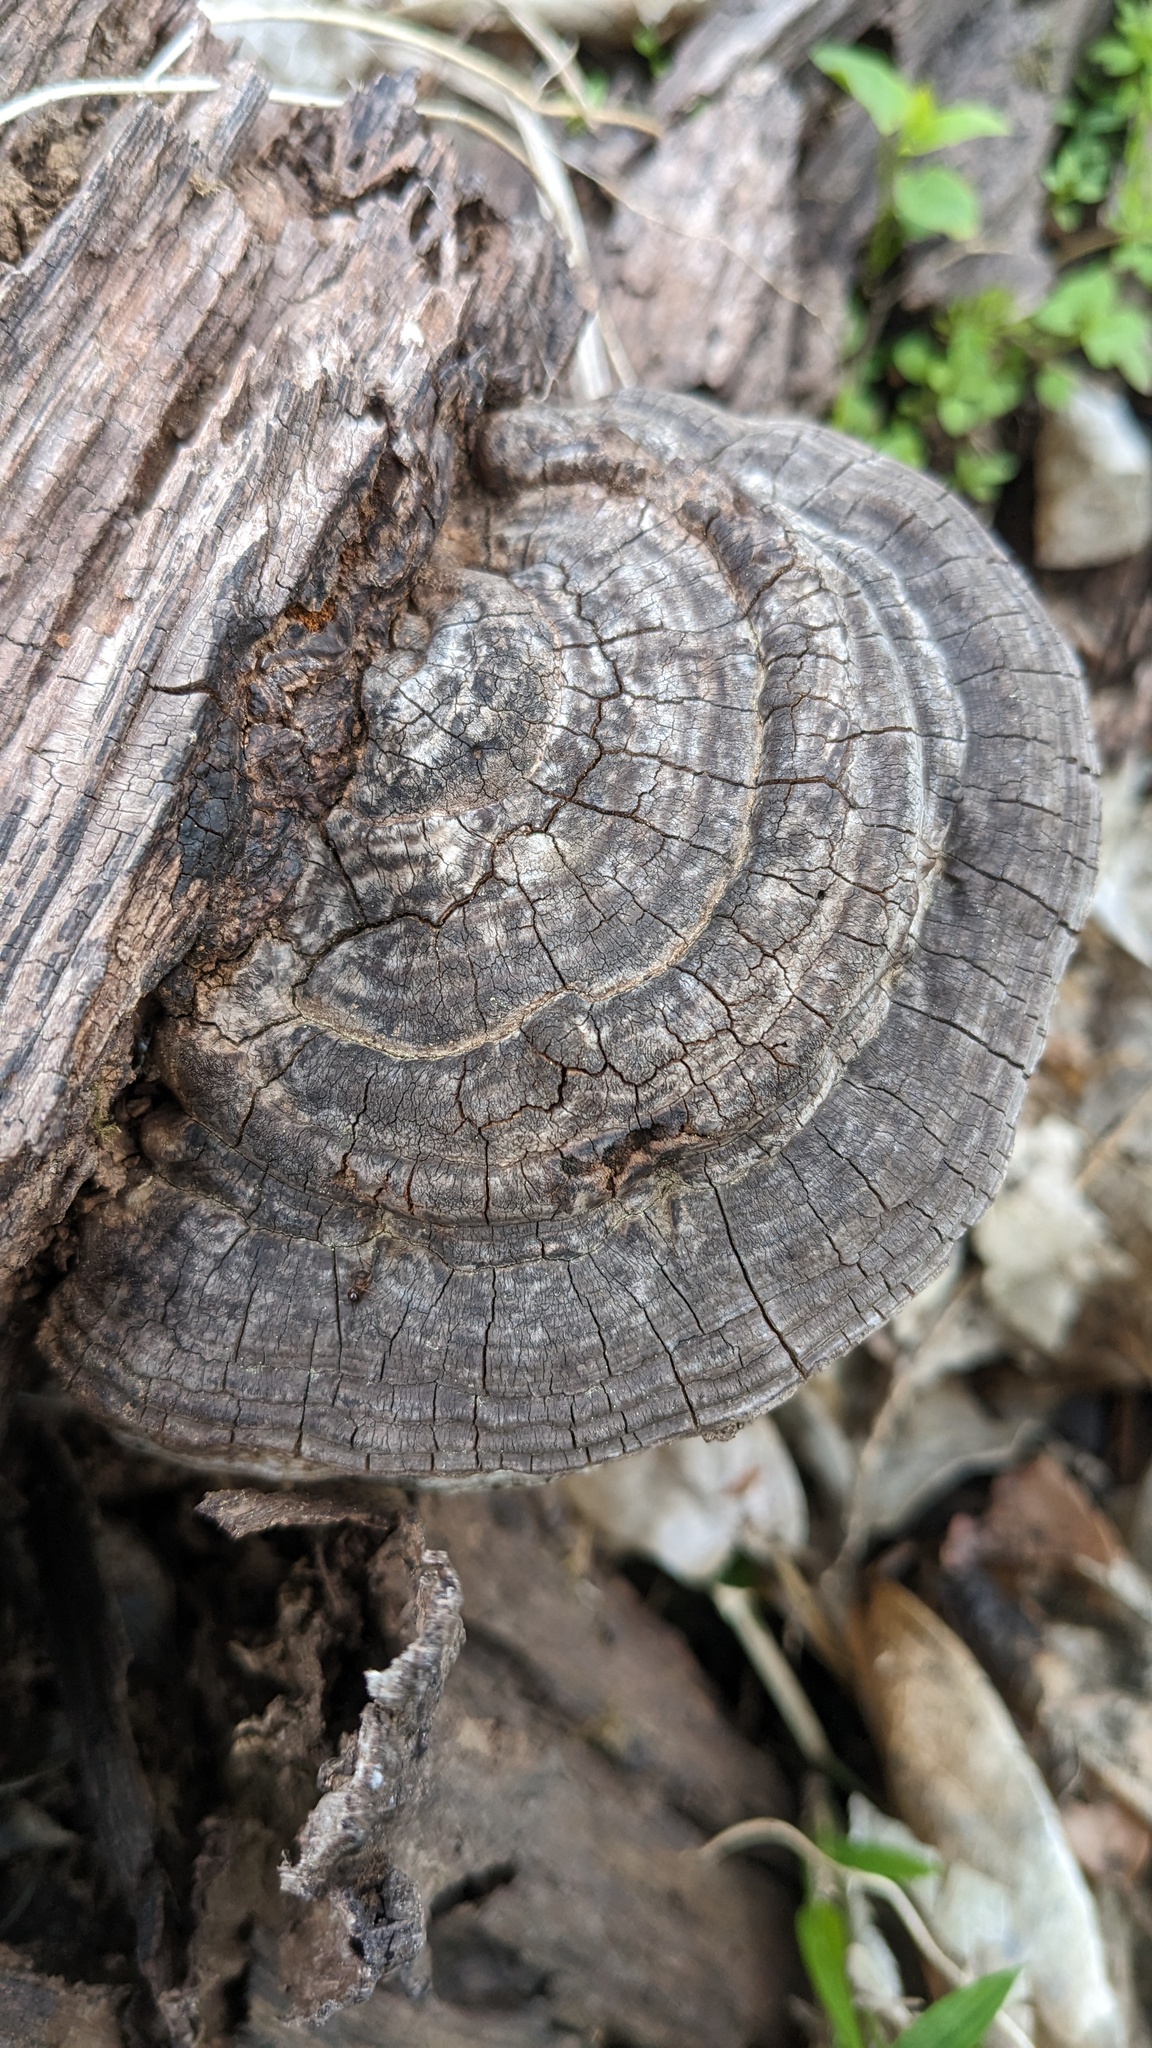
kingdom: Fungi
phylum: Basidiomycota
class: Agaricomycetes
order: Polyporales
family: Polyporaceae
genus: Ganoderma
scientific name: Ganoderma applanatum
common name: Artist's bracket
